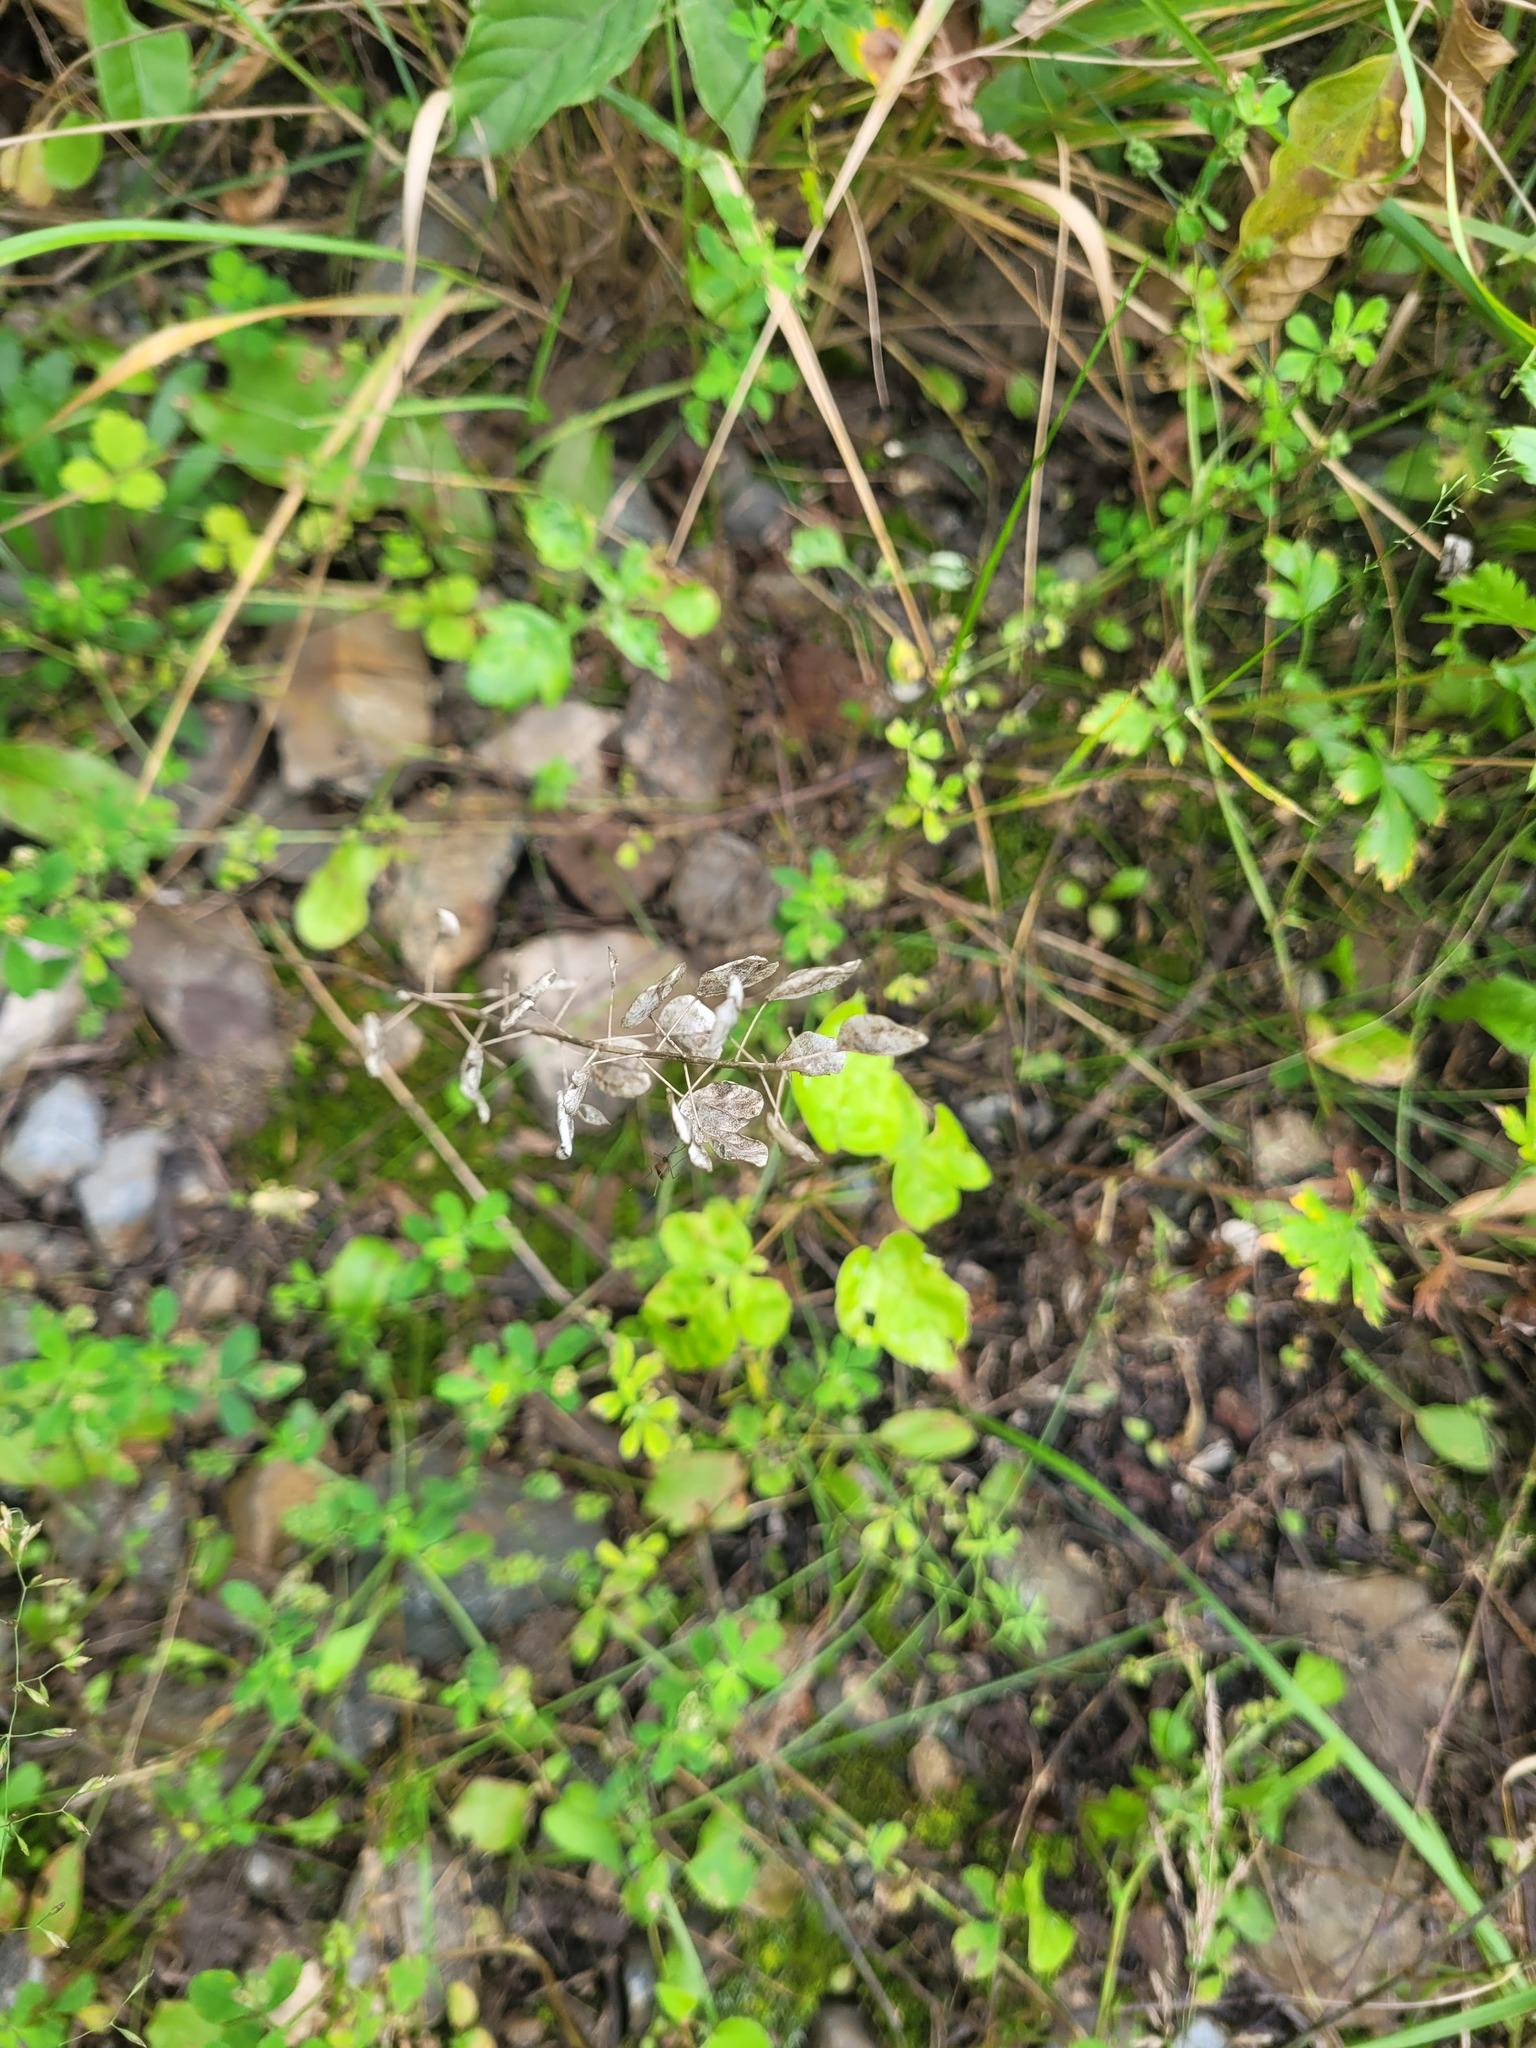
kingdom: Plantae
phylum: Tracheophyta
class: Magnoliopsida
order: Brassicales
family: Brassicaceae
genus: Thlaspi
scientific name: Thlaspi arvense
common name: Field pennycress
